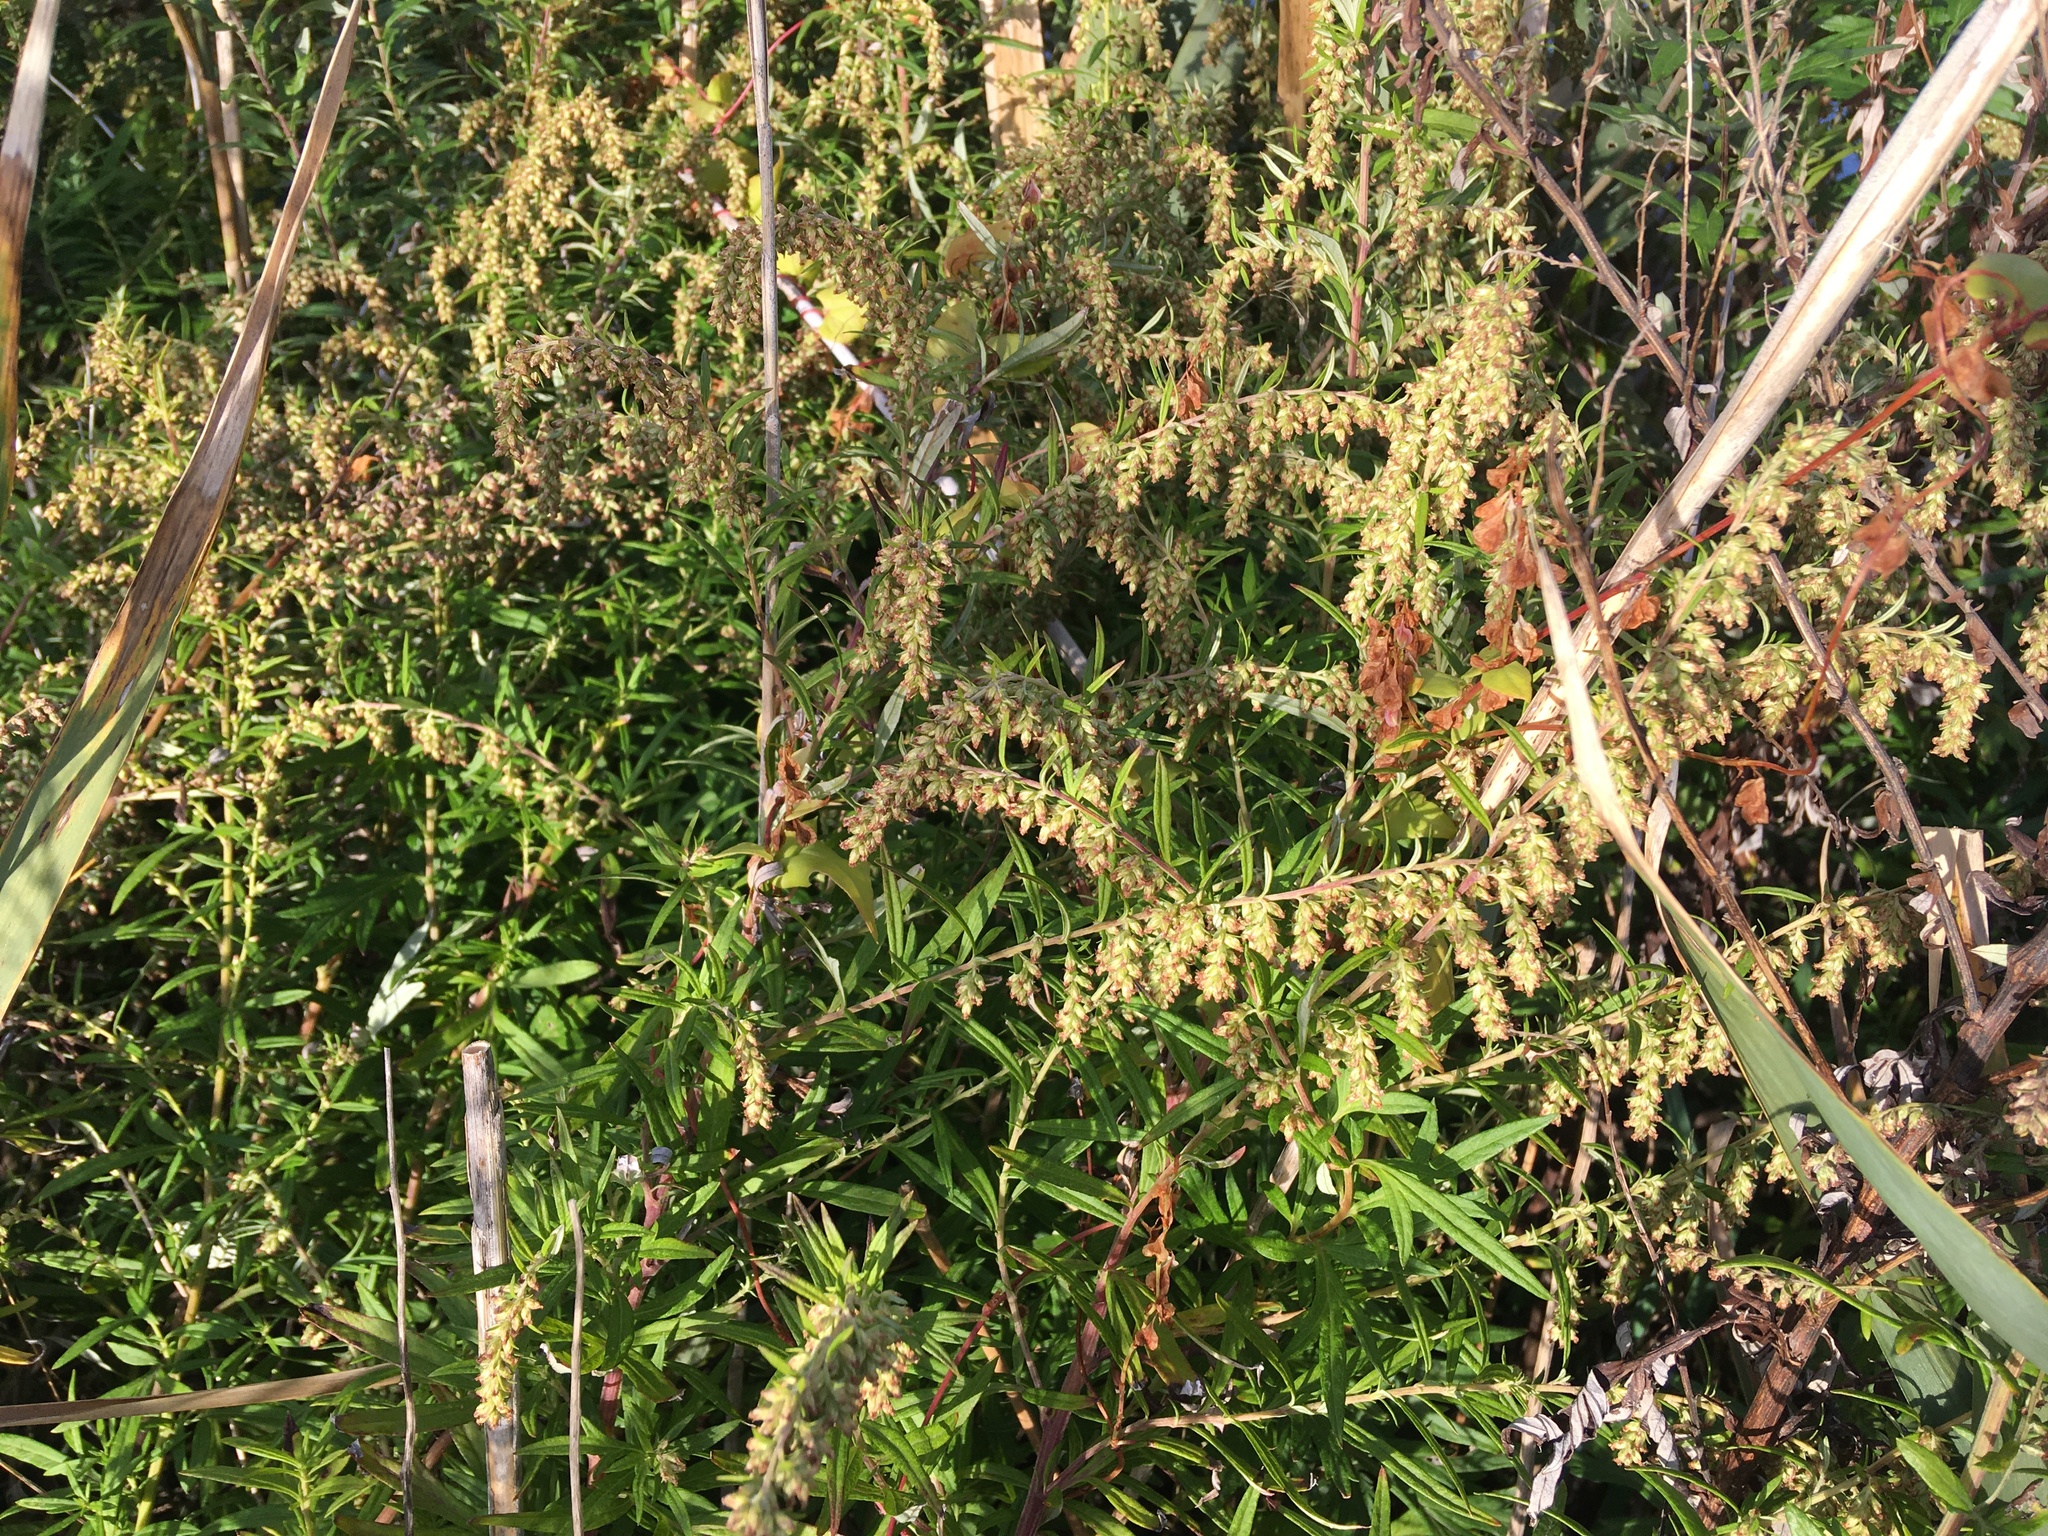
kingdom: Plantae
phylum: Tracheophyta
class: Magnoliopsida
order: Asterales
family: Asteraceae
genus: Artemisia
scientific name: Artemisia vulgaris
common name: Mugwort
